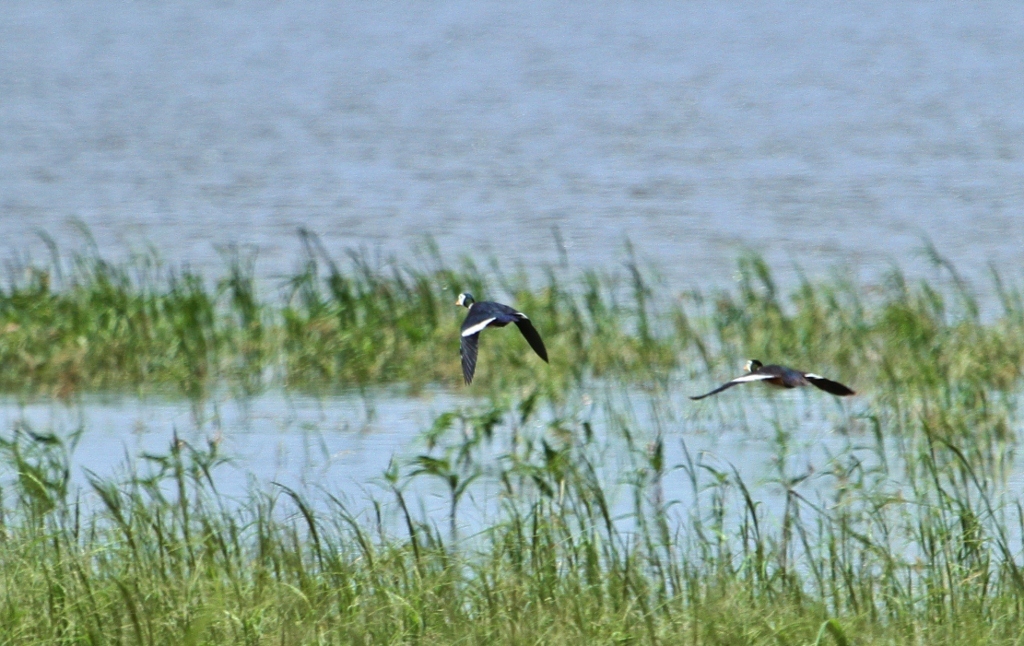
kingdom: Animalia
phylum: Chordata
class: Aves
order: Anseriformes
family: Anatidae
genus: Nettapus
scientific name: Nettapus auritus
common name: African pygmy-goose
